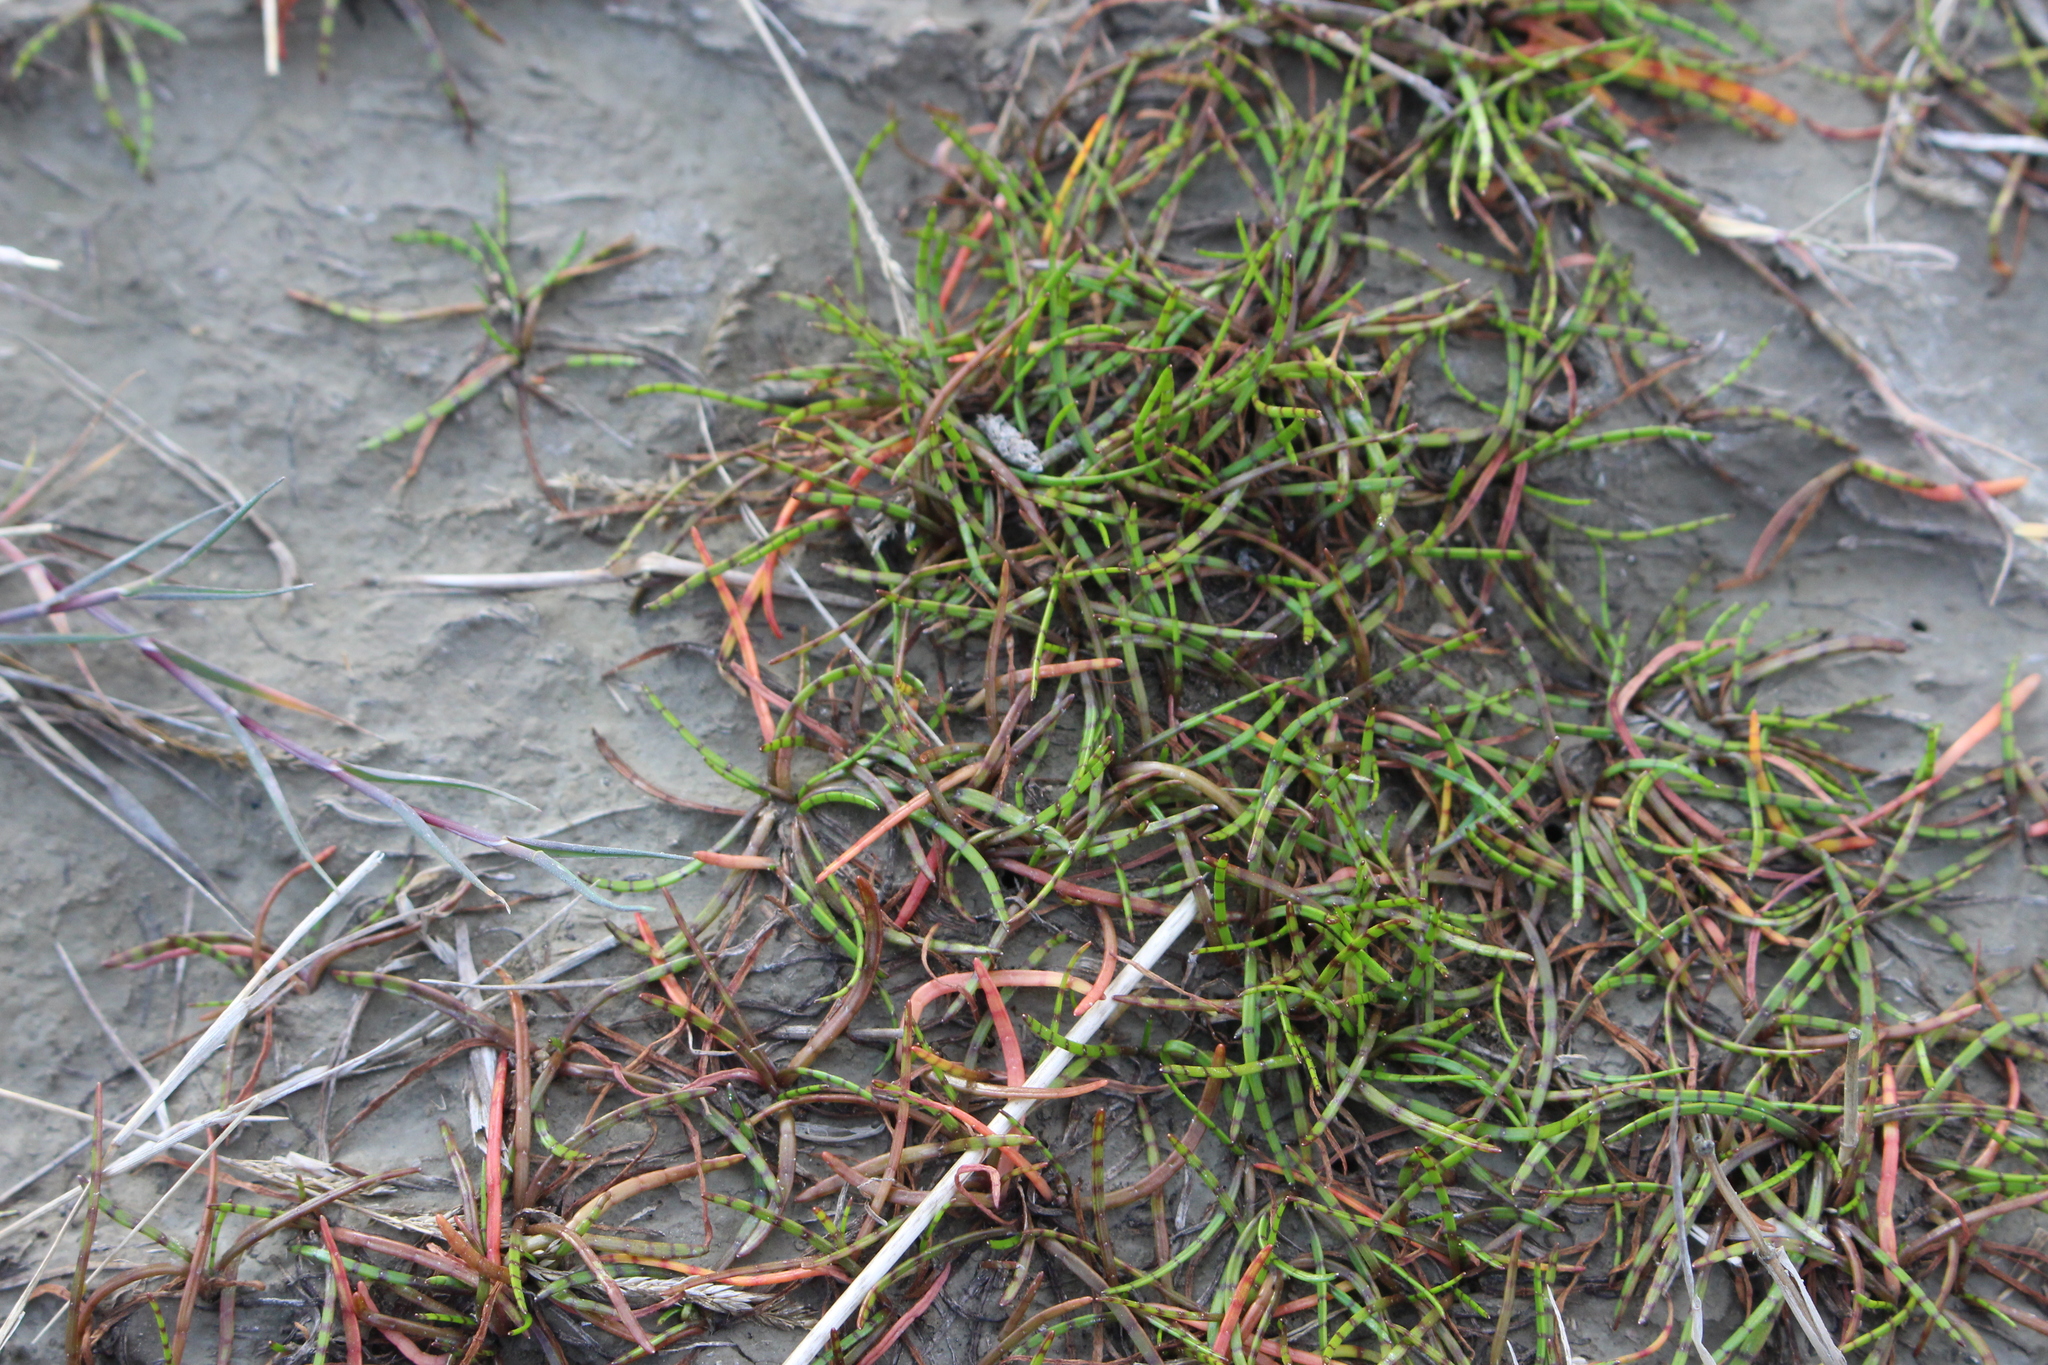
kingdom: Plantae
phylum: Tracheophyta
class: Magnoliopsida
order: Apiales
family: Apiaceae
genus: Lilaeopsis
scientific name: Lilaeopsis novae-zelandiae
